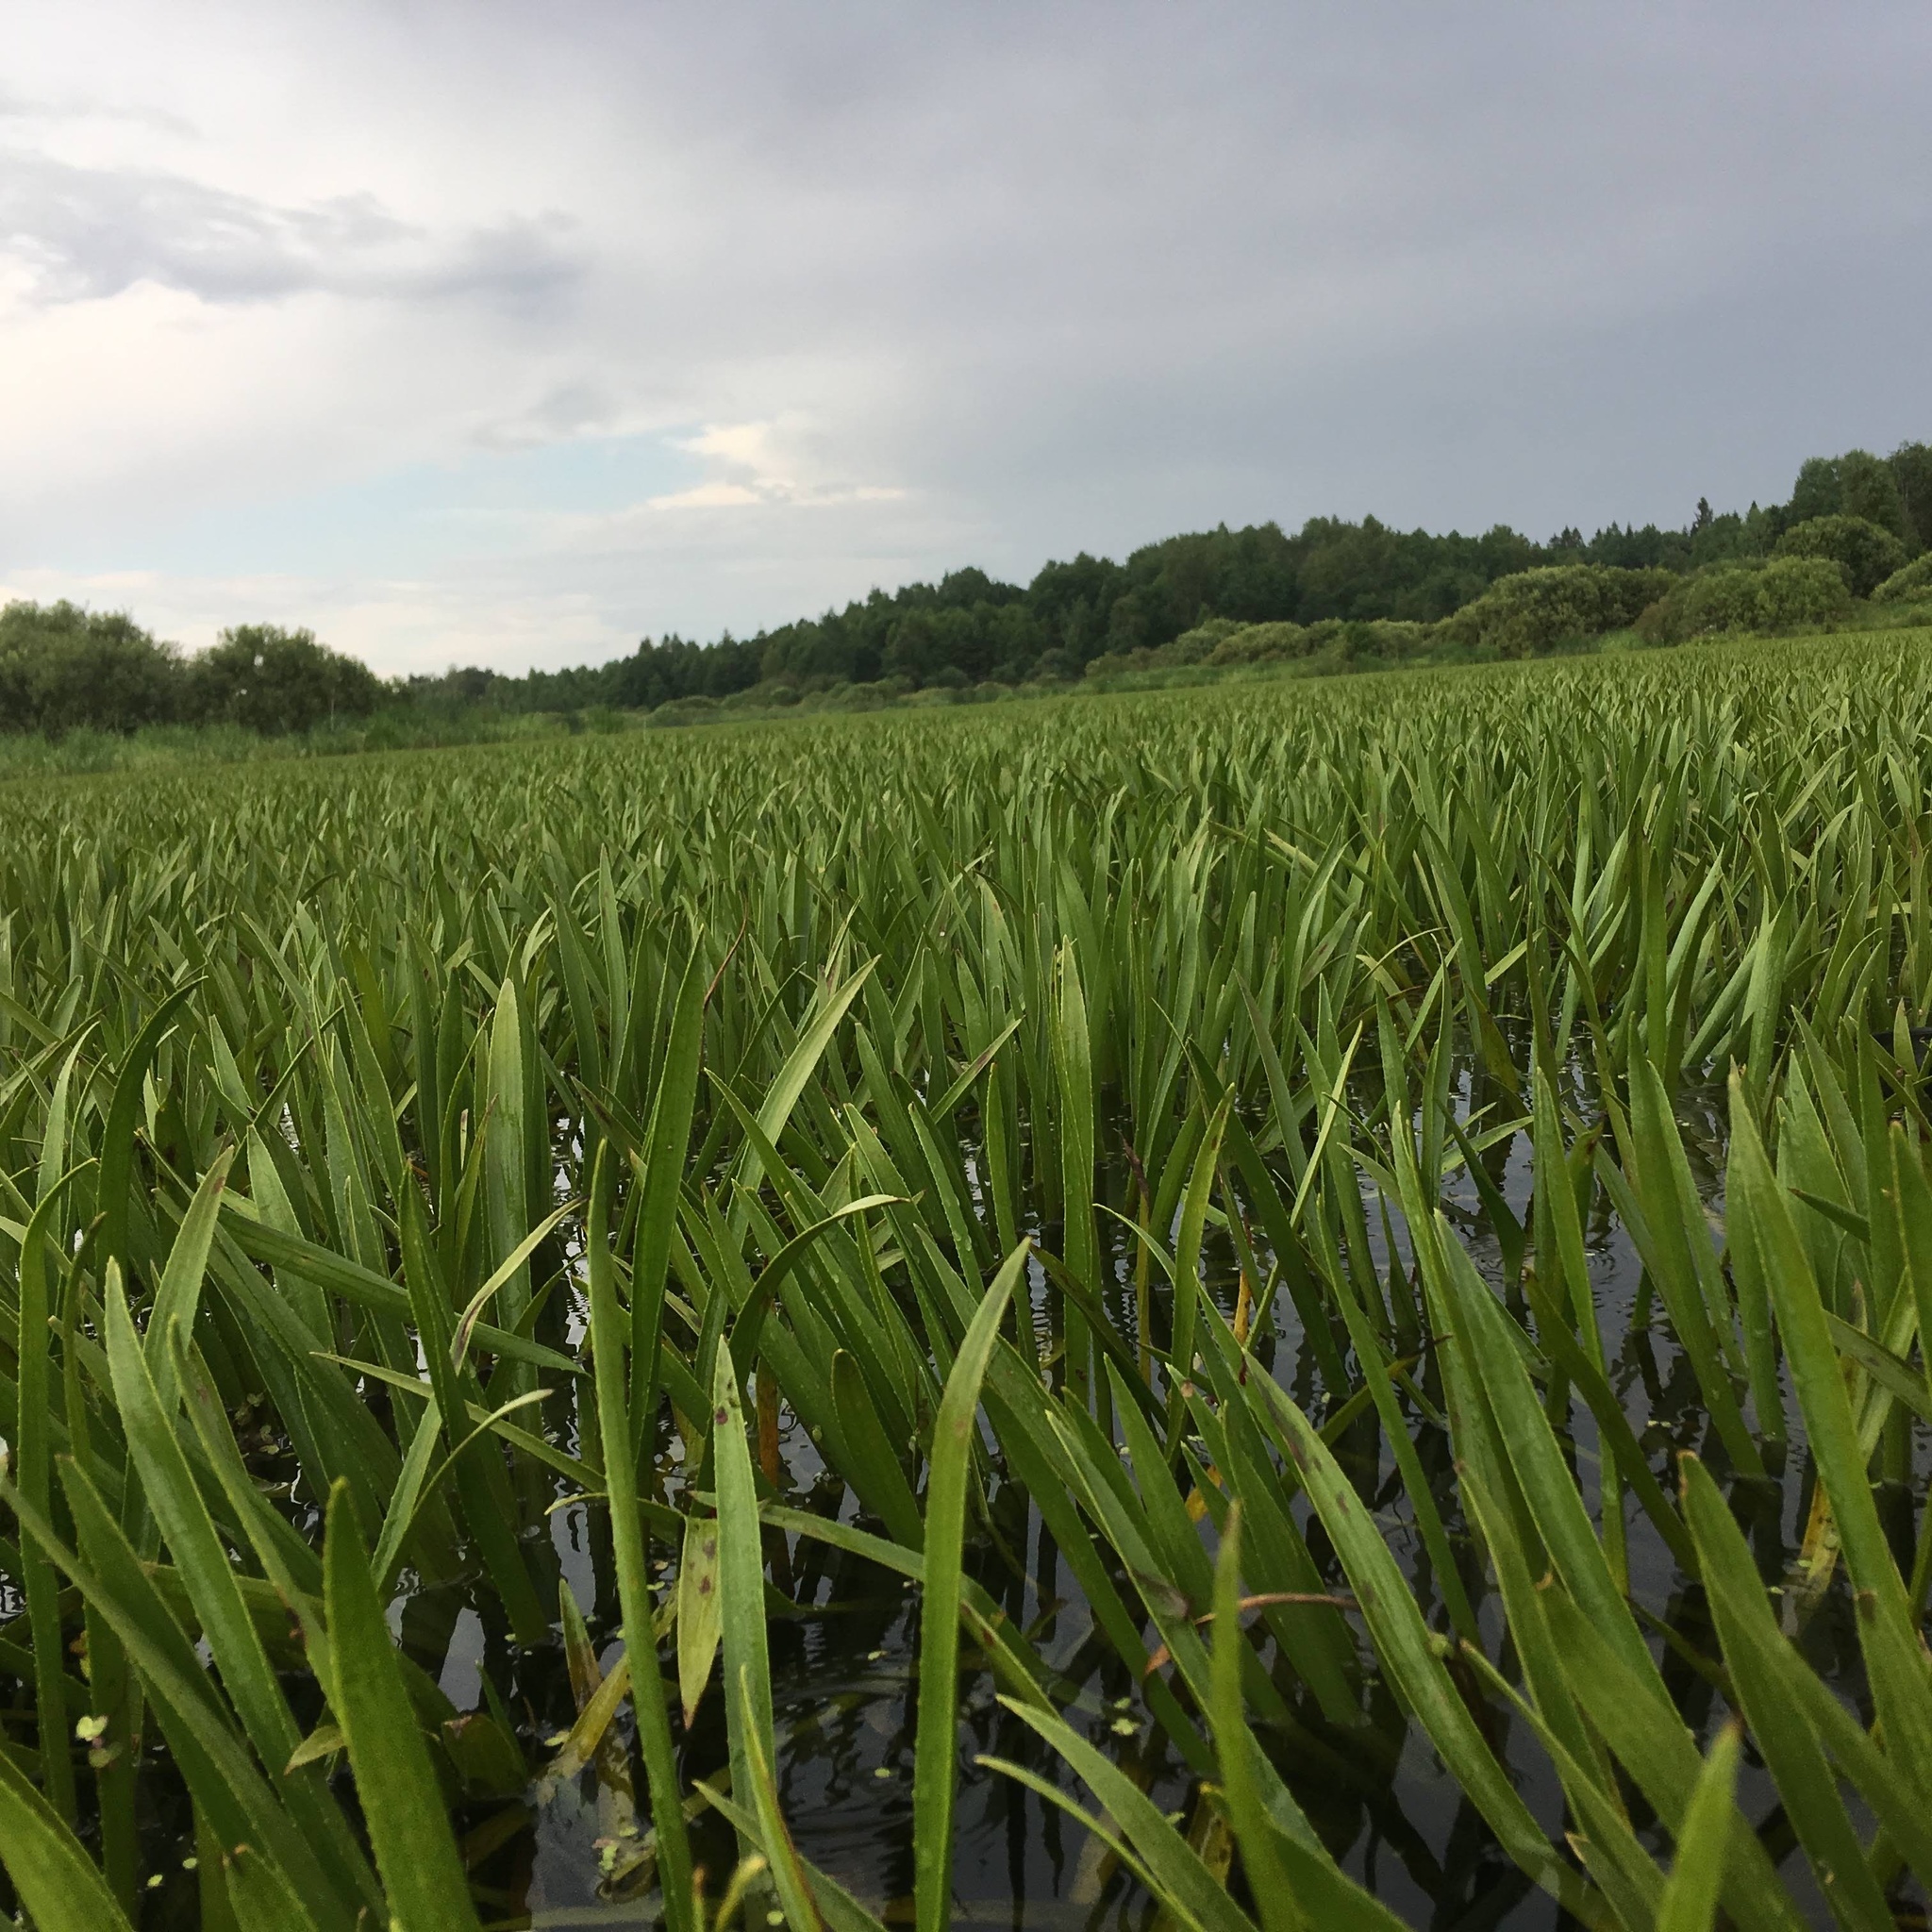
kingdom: Plantae
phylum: Tracheophyta
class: Liliopsida
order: Alismatales
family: Hydrocharitaceae
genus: Stratiotes
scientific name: Stratiotes aloides
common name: Water-soldier
